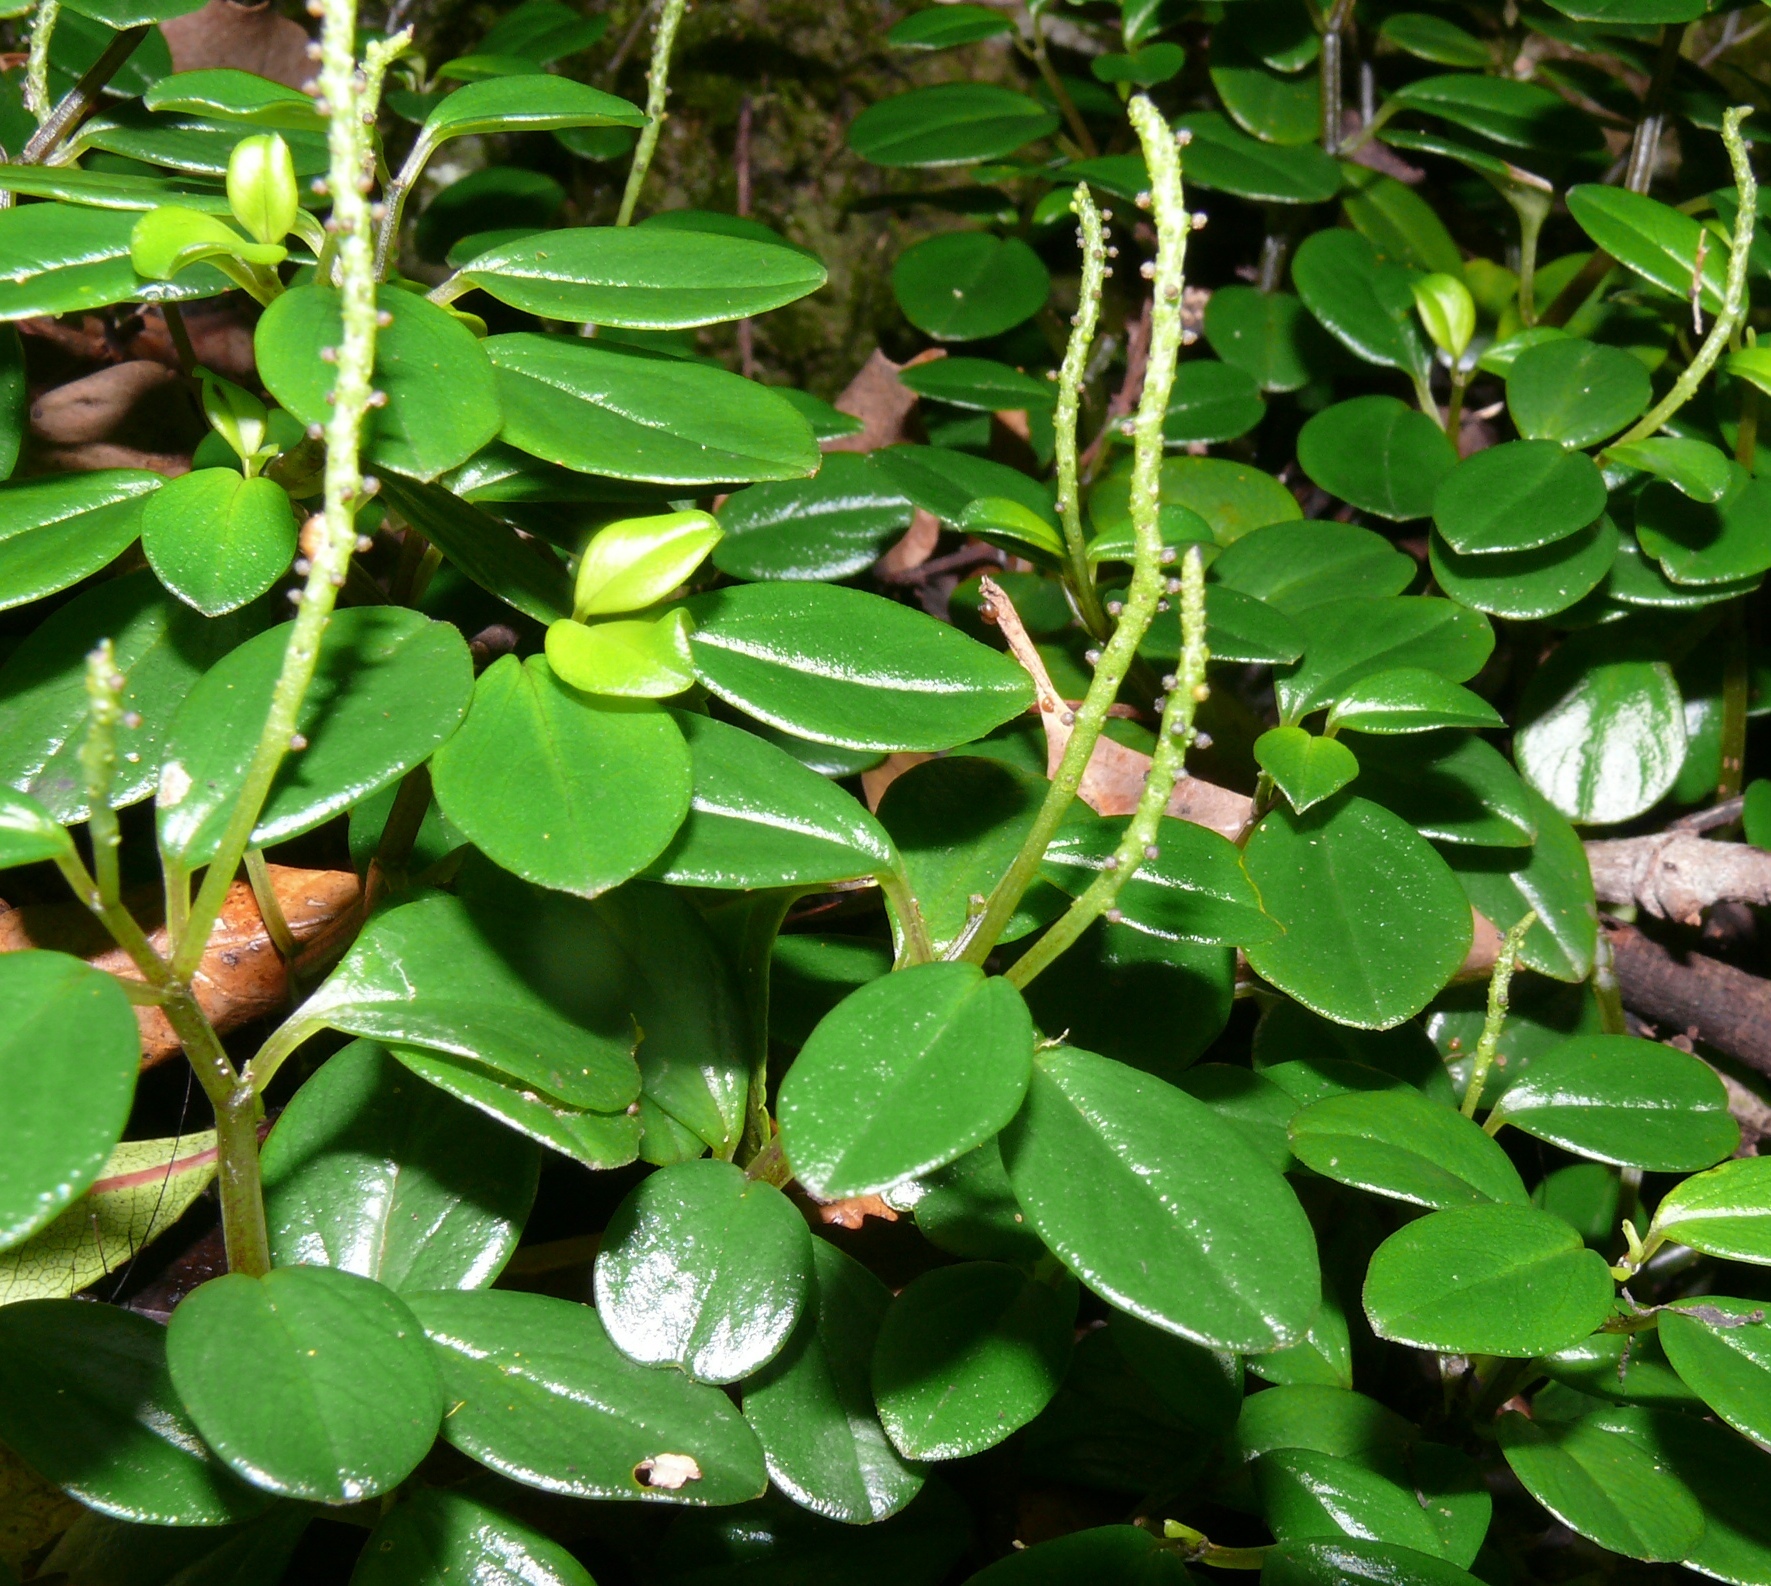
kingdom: Plantae
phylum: Tracheophyta
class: Magnoliopsida
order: Piperales
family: Piperaceae
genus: Peperomia
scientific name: Peperomia retusa
